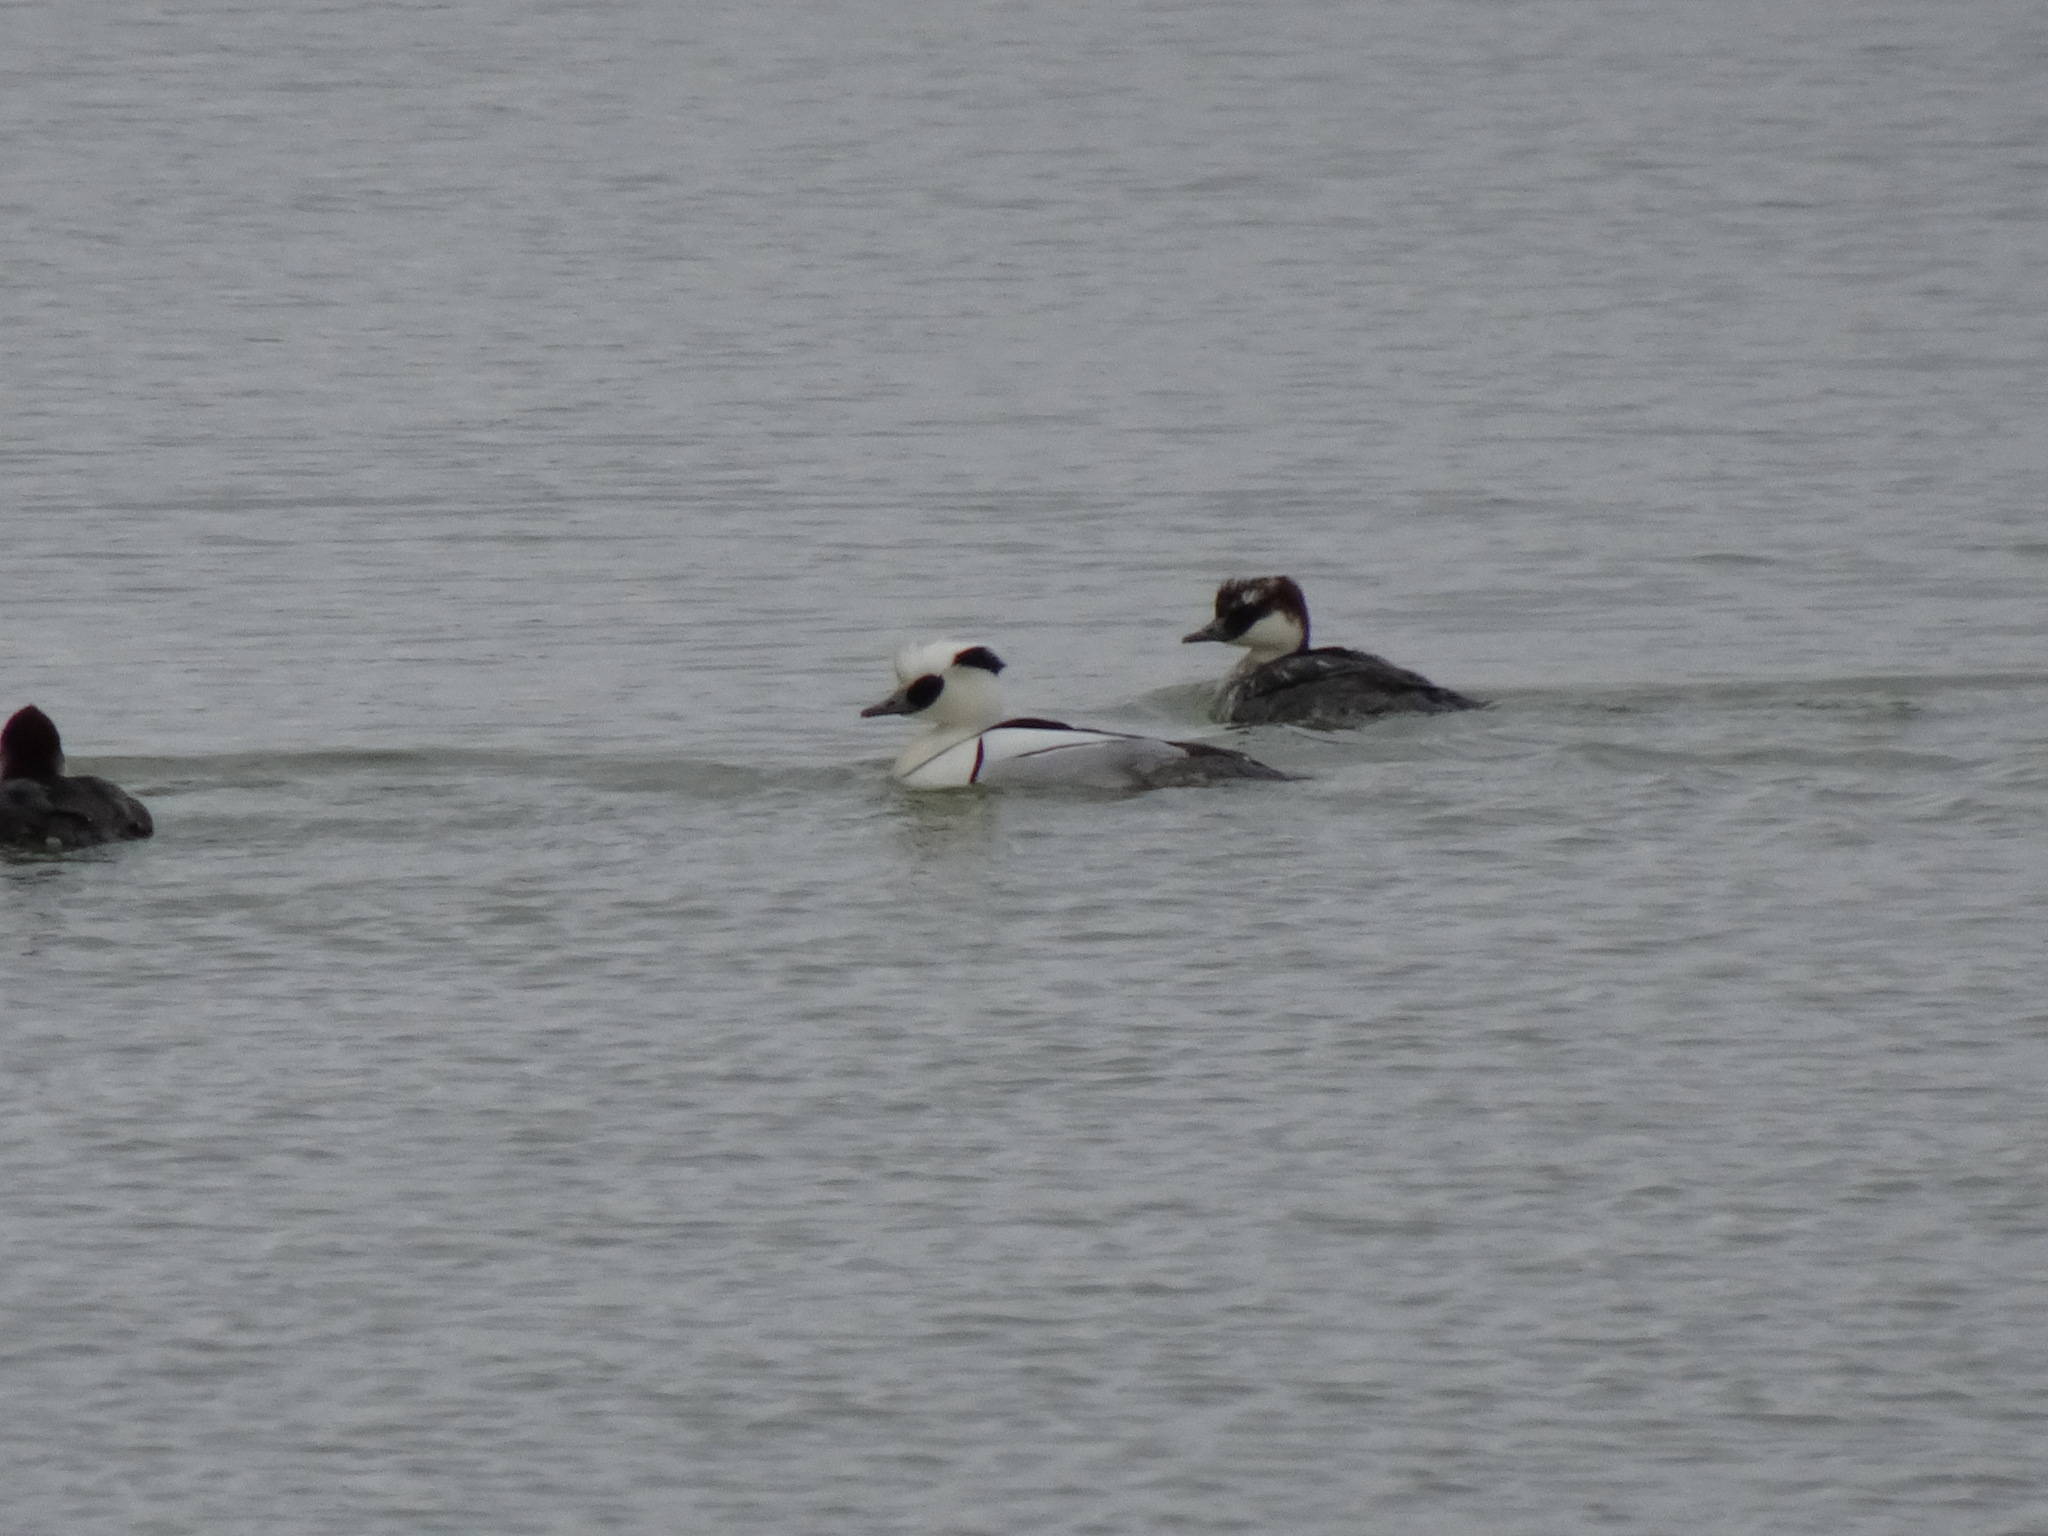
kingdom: Animalia
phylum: Chordata
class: Aves
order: Anseriformes
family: Anatidae
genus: Mergellus
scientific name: Mergellus albellus
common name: Smew
